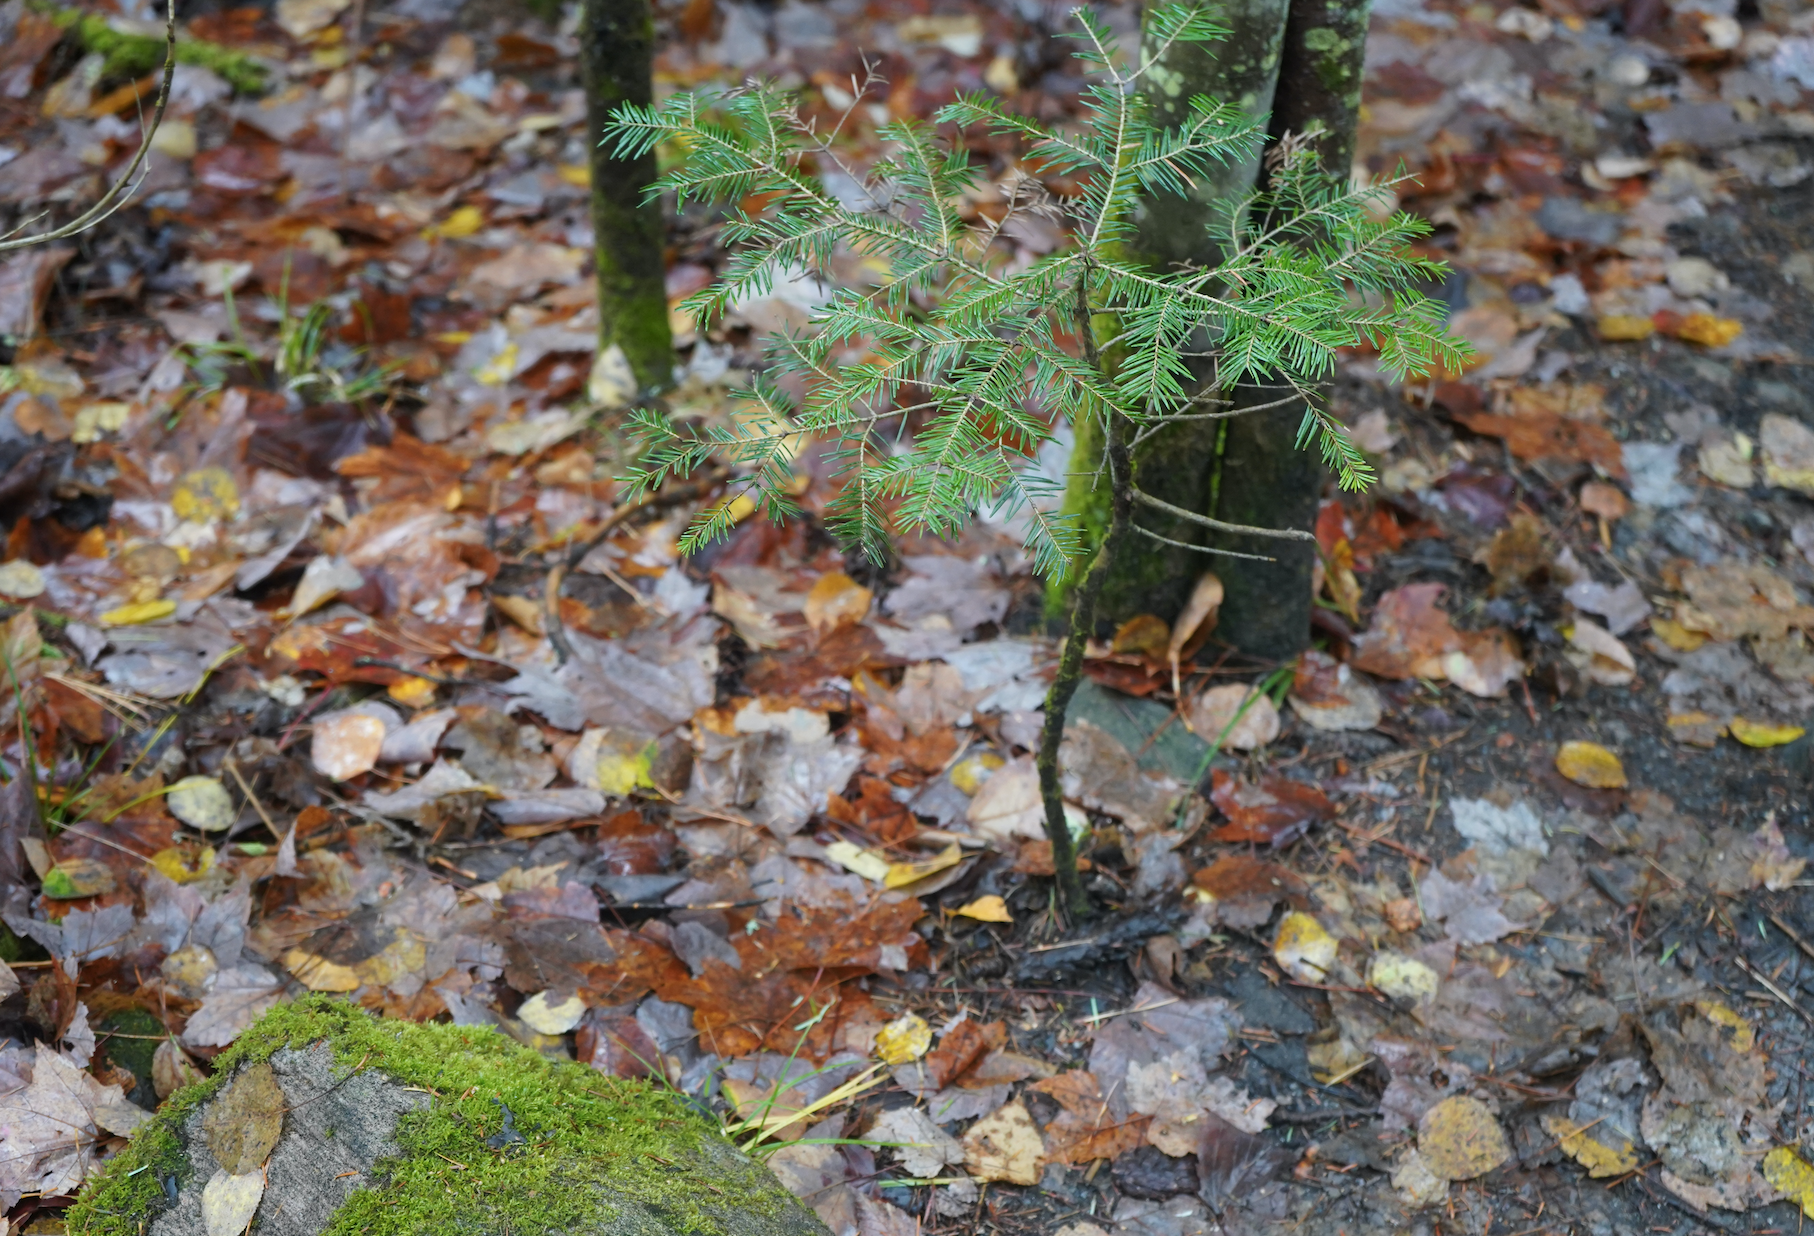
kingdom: Plantae
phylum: Tracheophyta
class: Pinopsida
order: Pinales
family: Pinaceae
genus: Abies
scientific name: Abies balsamea
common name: Balsam fir
